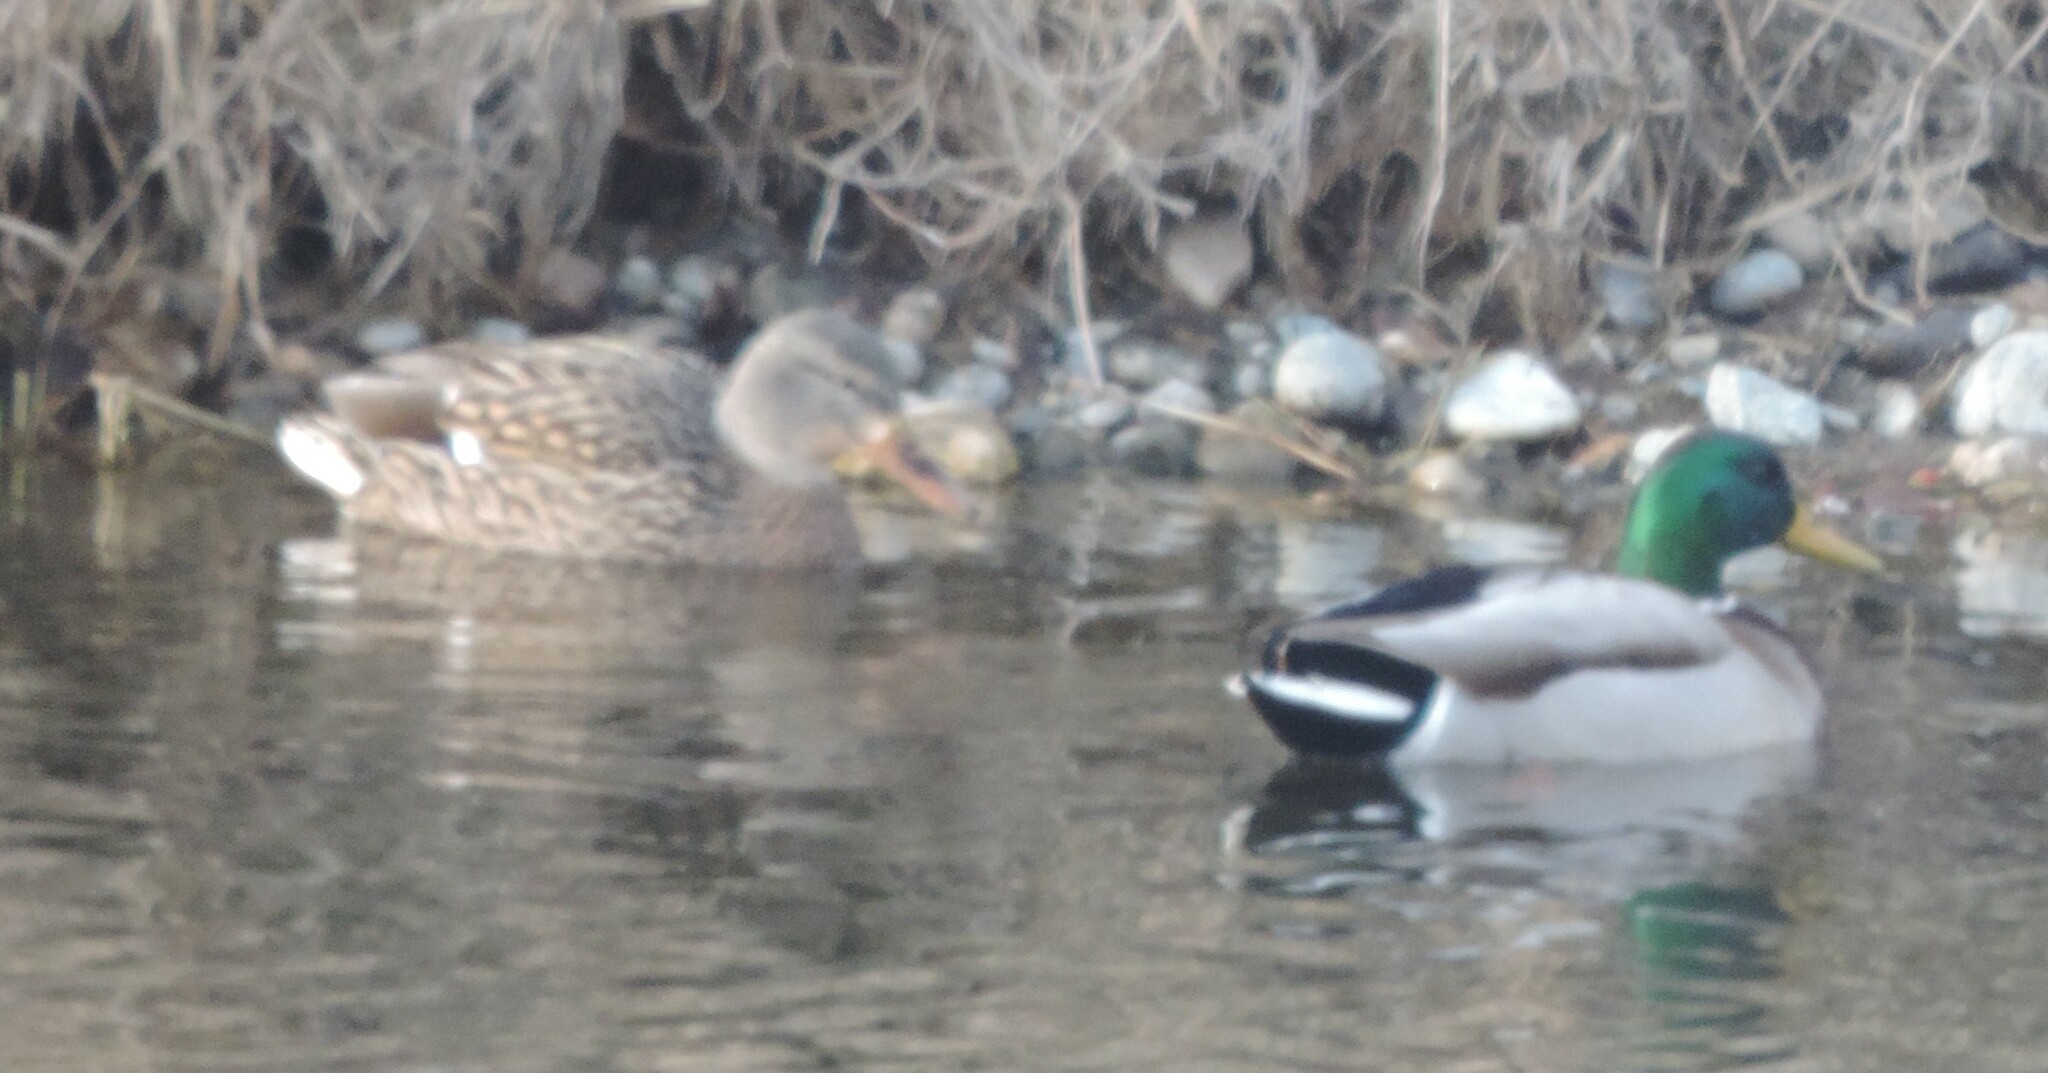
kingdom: Animalia
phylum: Chordata
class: Aves
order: Anseriformes
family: Anatidae
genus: Anas
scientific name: Anas platyrhynchos
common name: Mallard
